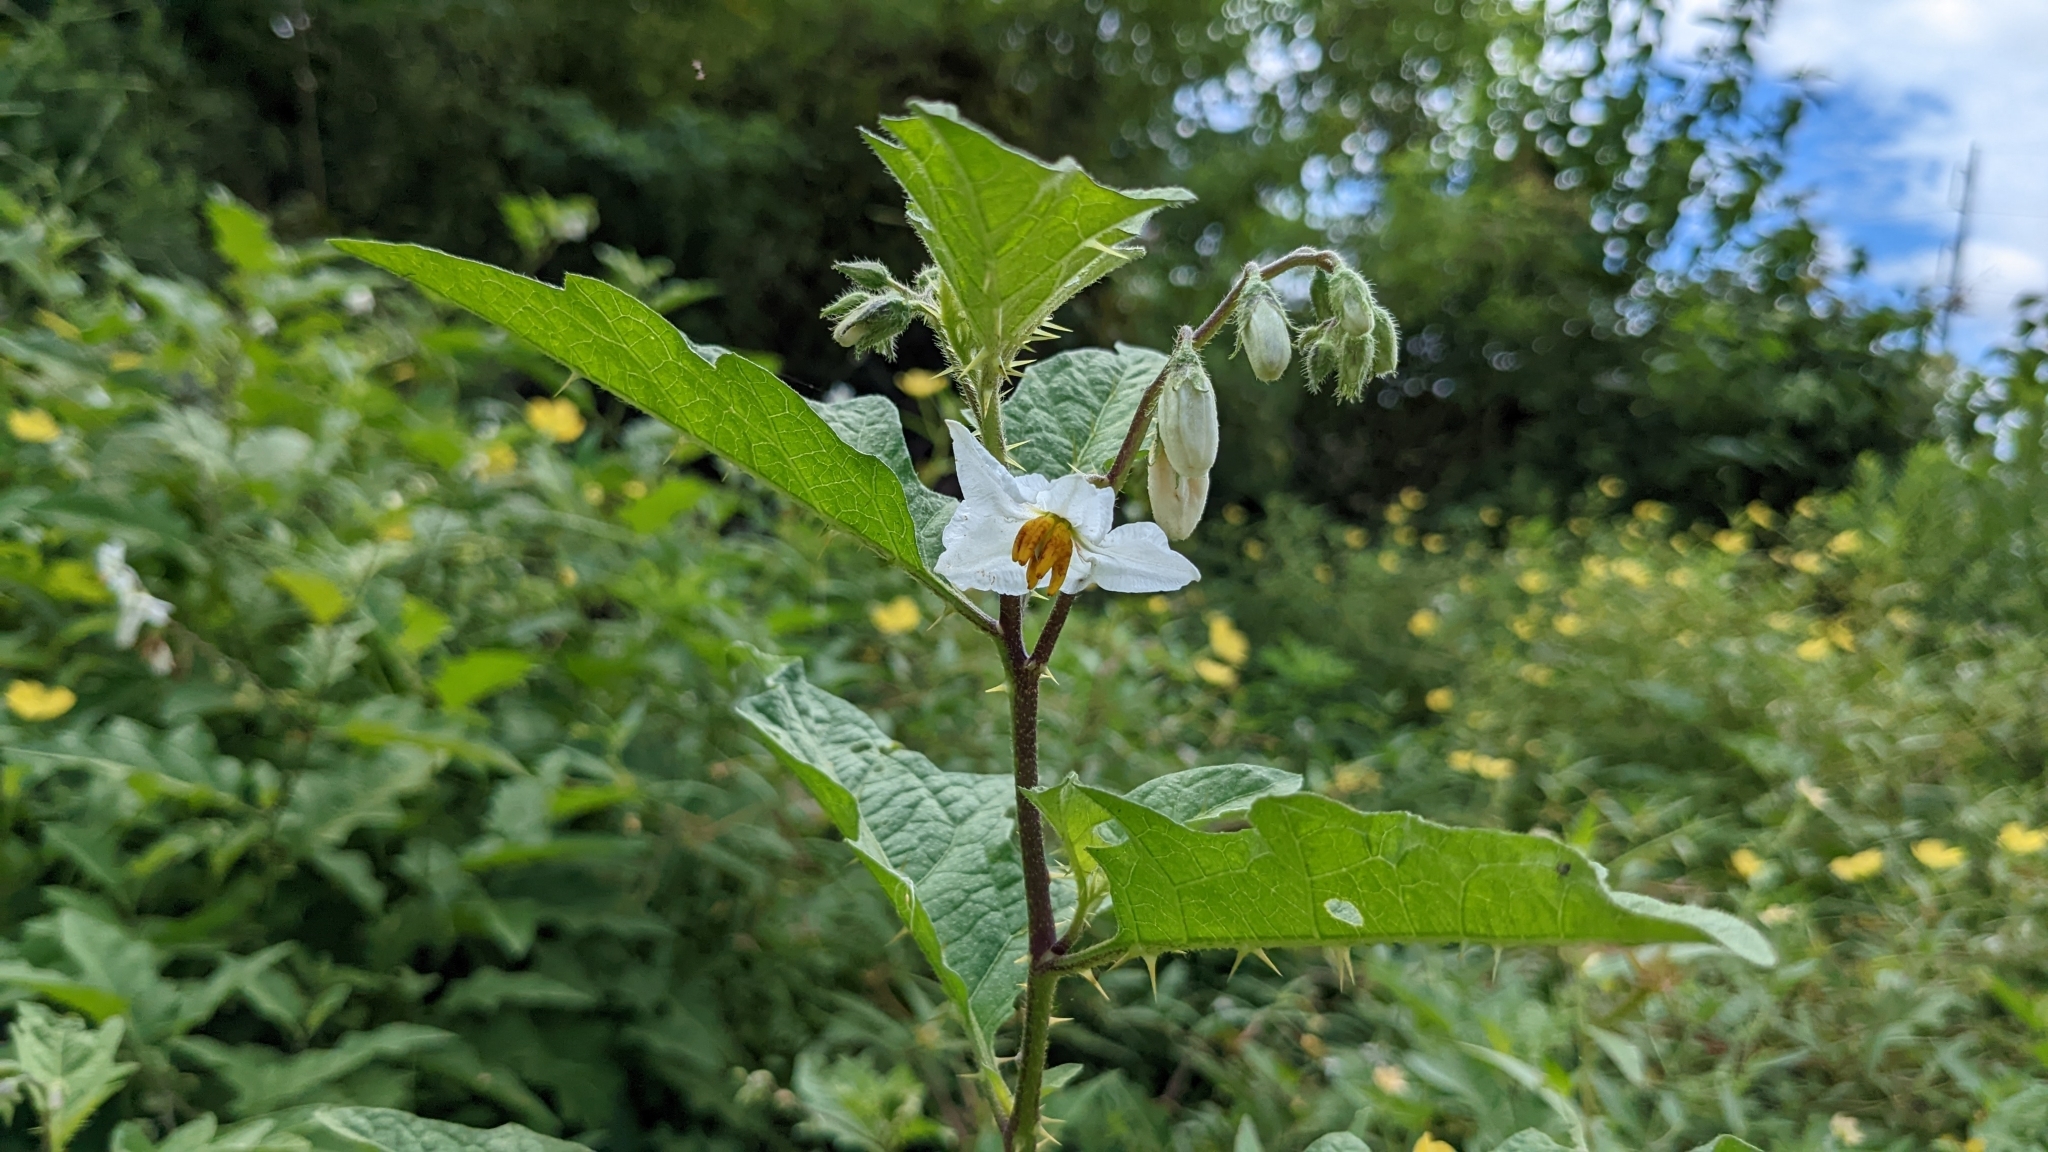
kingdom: Plantae
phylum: Tracheophyta
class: Magnoliopsida
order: Solanales
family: Solanaceae
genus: Solanum
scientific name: Solanum carolinense
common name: Horse-nettle
